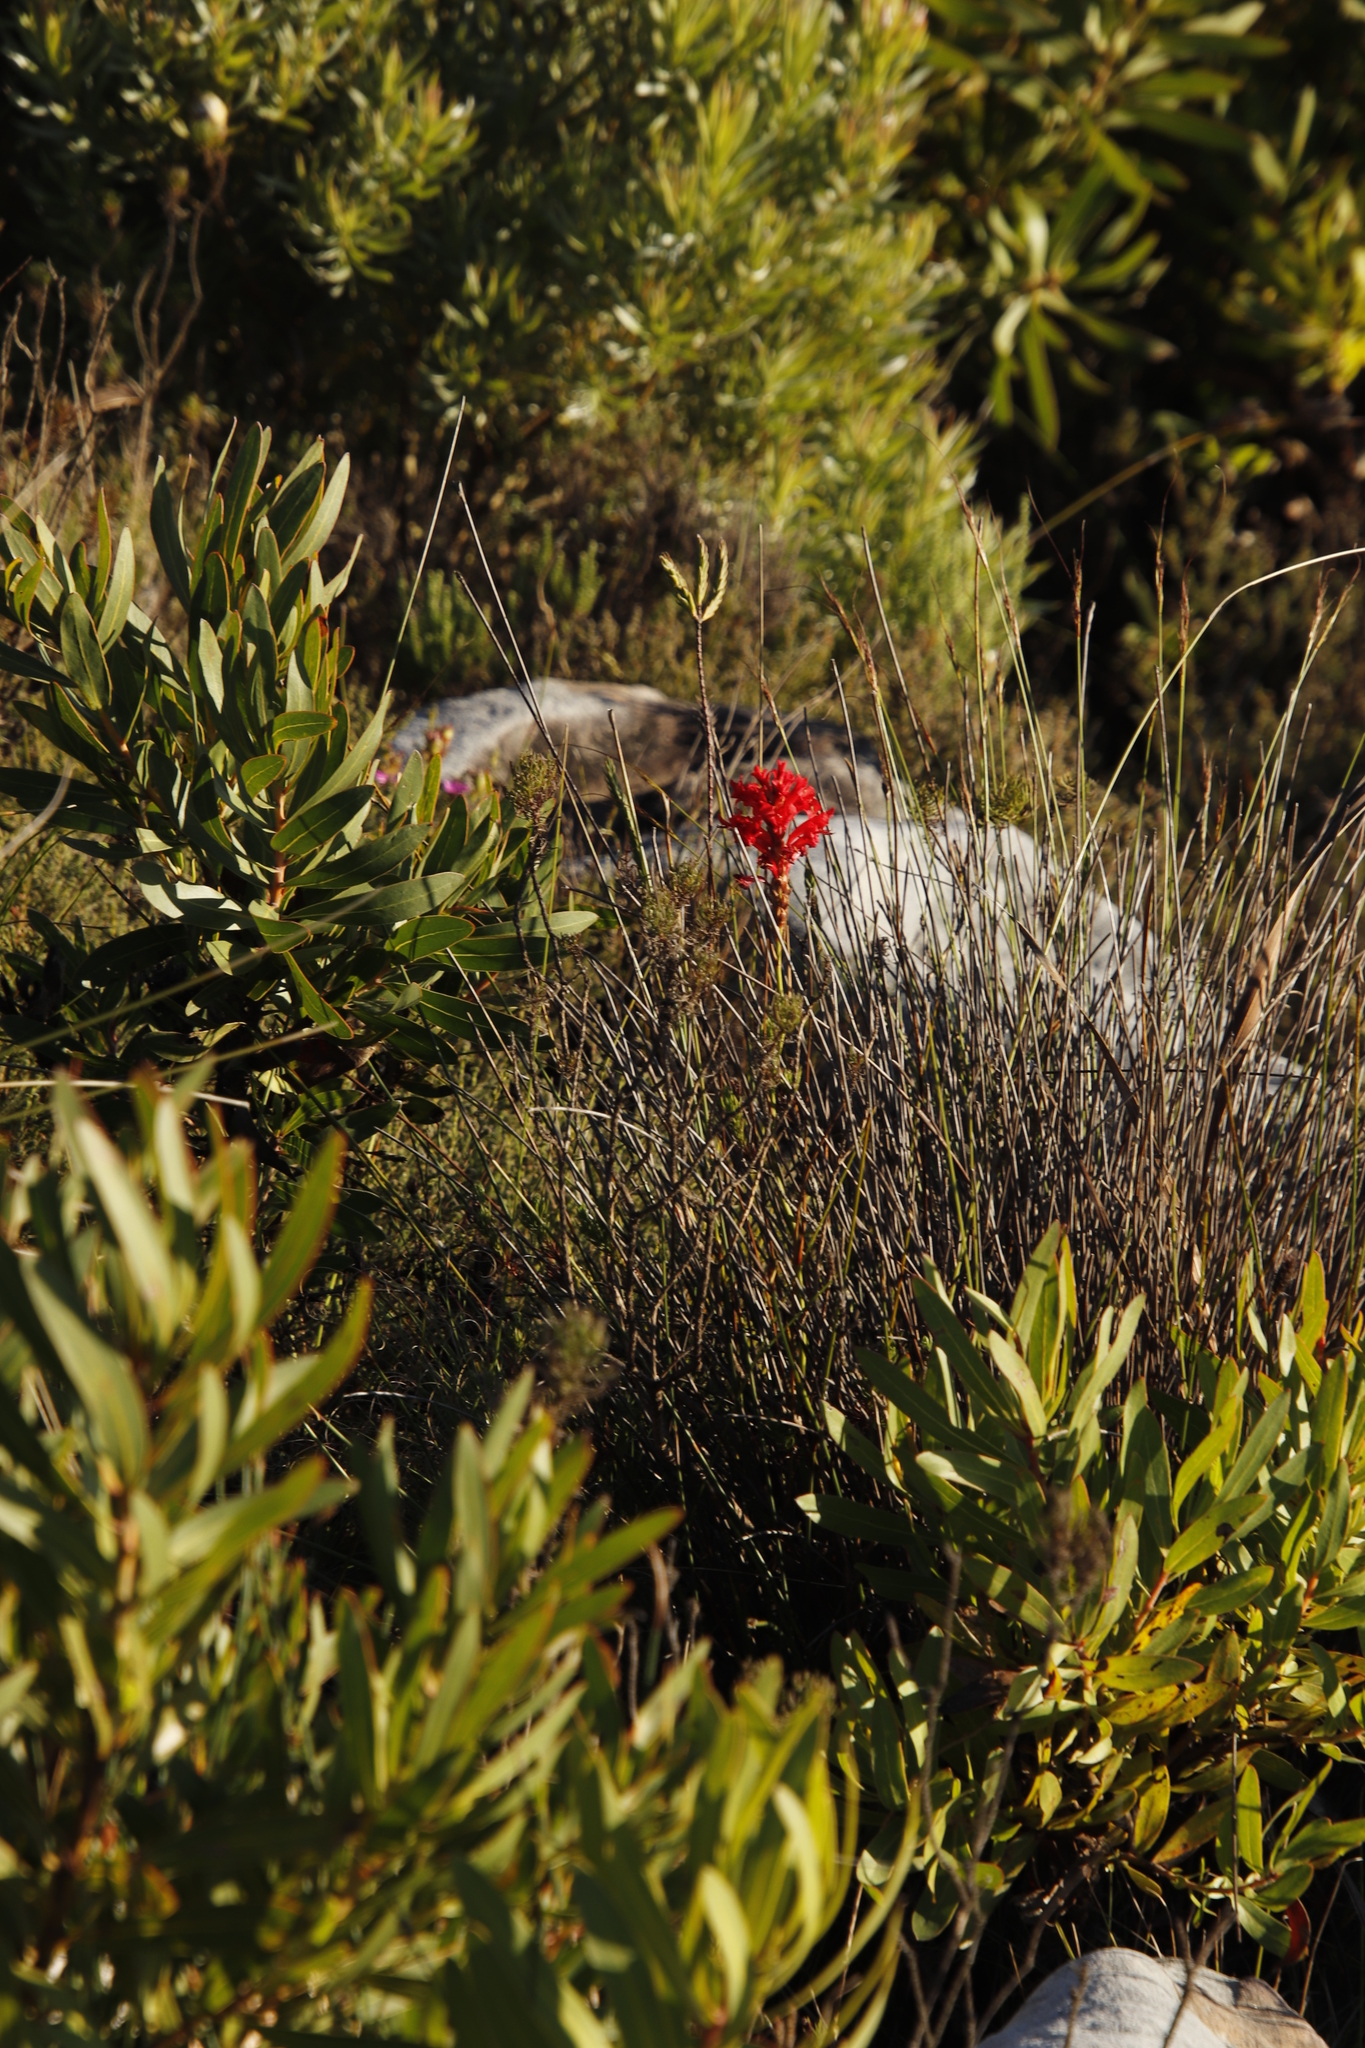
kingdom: Plantae
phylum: Tracheophyta
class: Liliopsida
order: Asparagales
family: Iridaceae
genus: Tritoniopsis
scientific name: Tritoniopsis triticea
